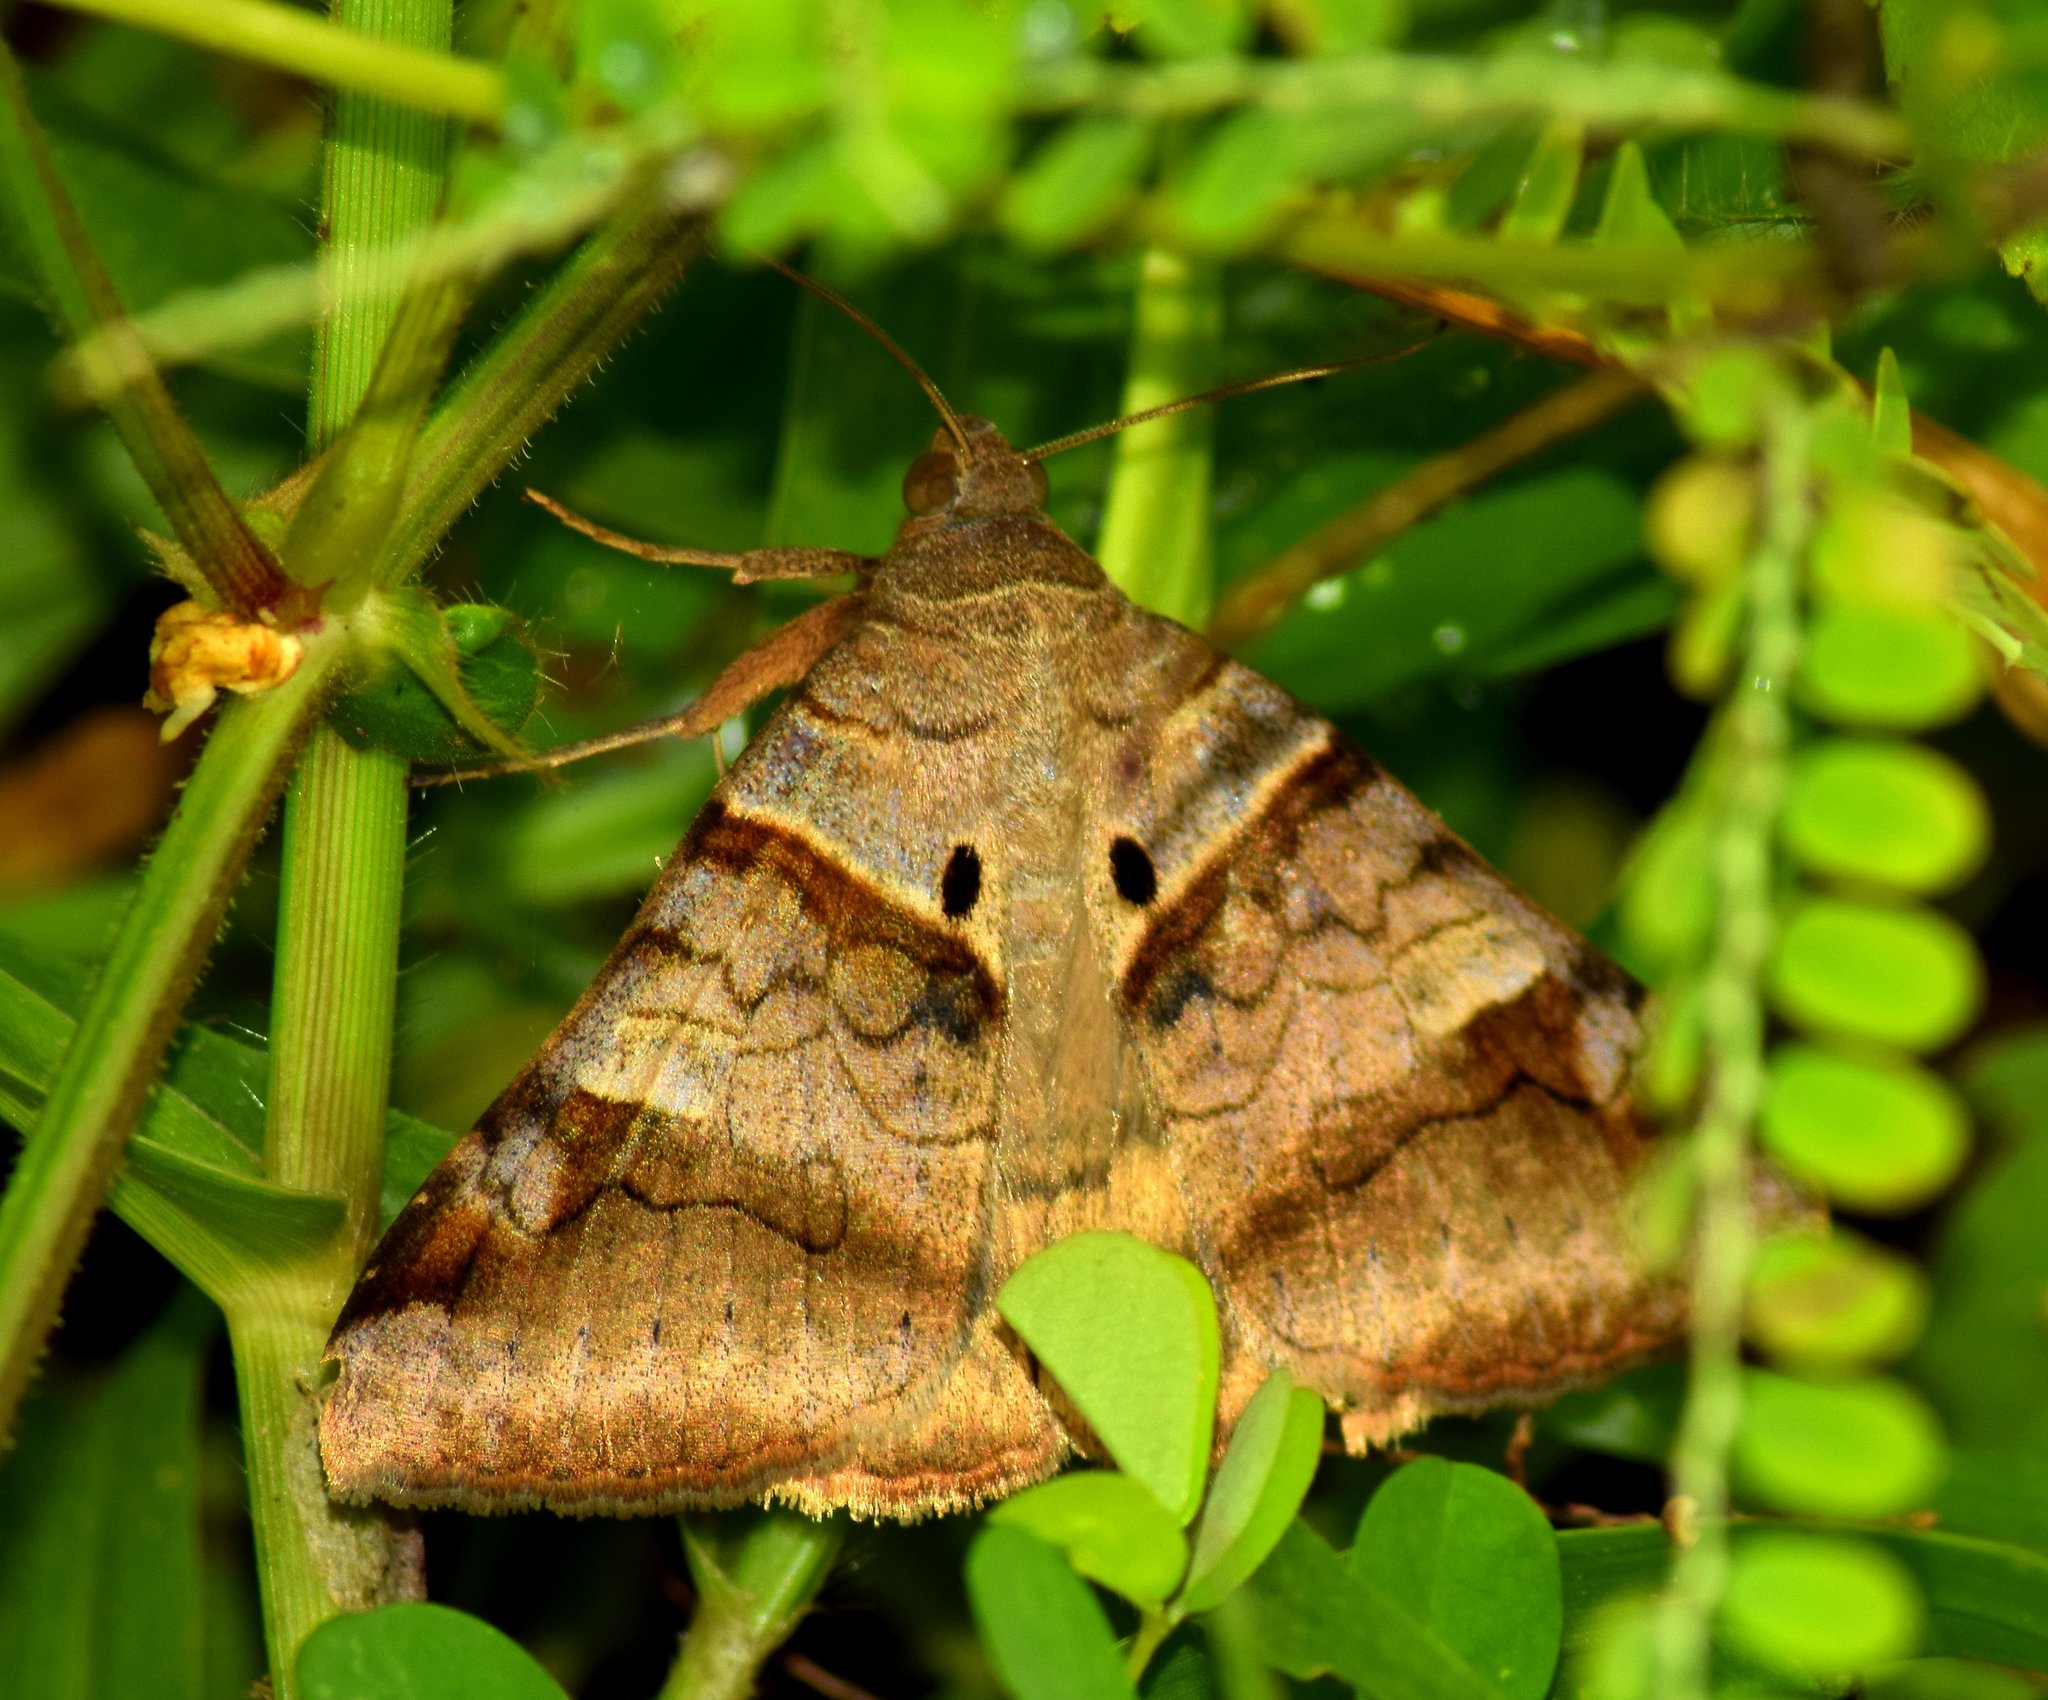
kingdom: Animalia
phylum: Arthropoda
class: Insecta
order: Lepidoptera
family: Erebidae
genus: Mocis
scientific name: Mocis undata
